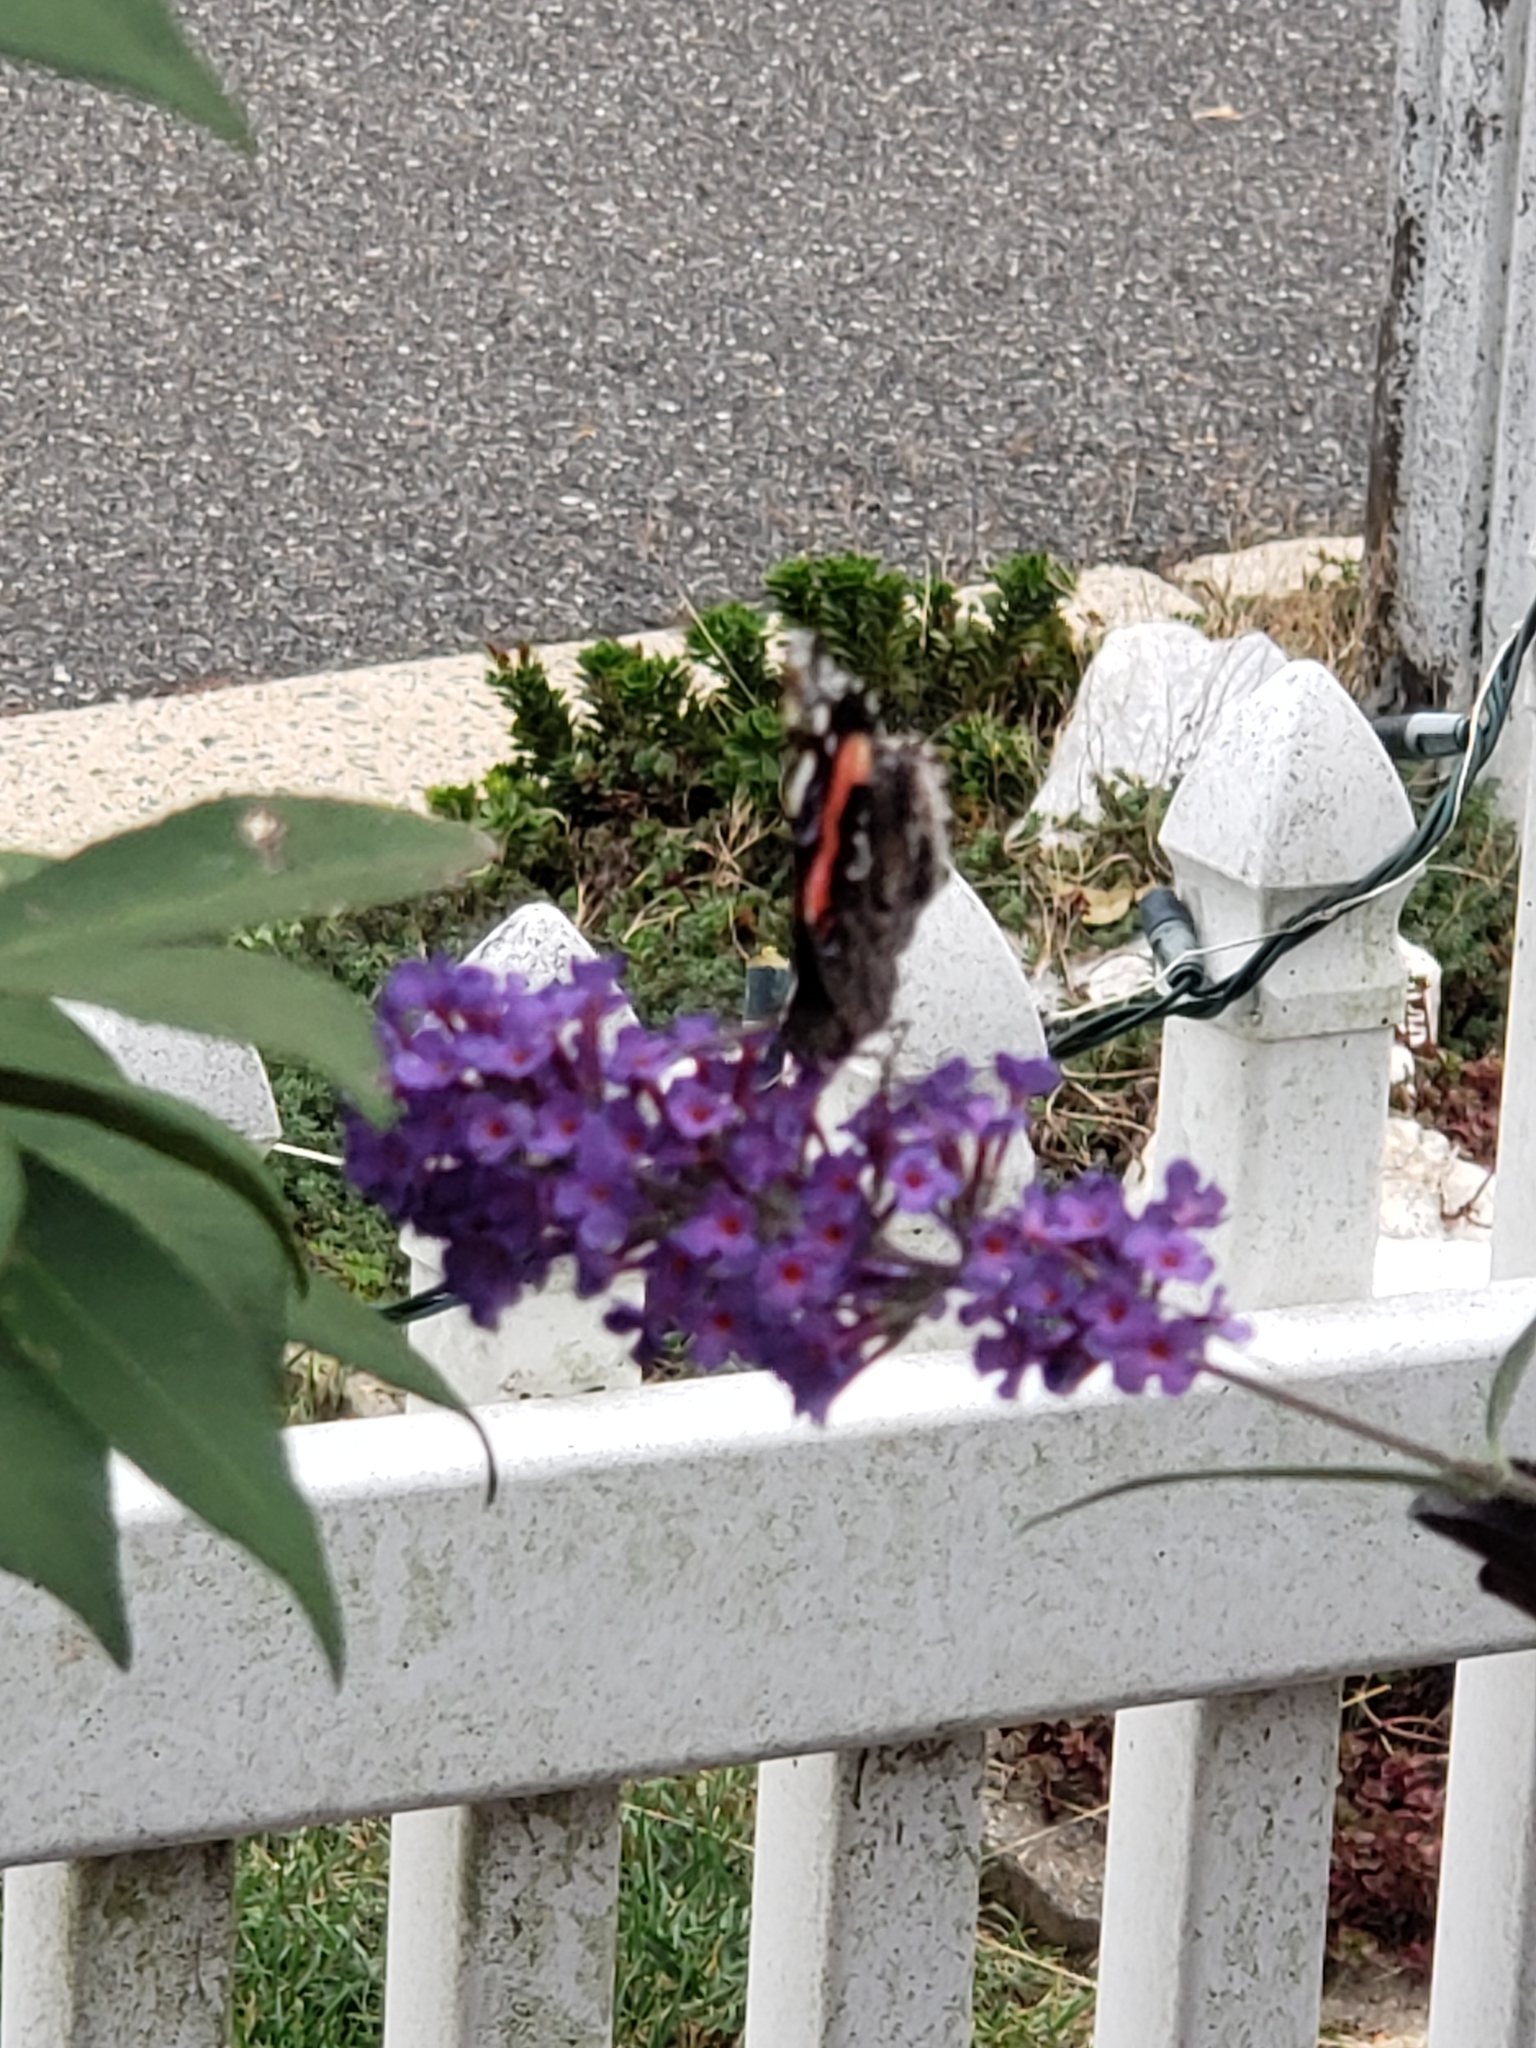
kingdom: Animalia
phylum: Arthropoda
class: Insecta
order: Lepidoptera
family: Nymphalidae
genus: Vanessa
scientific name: Vanessa atalanta
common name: Red admiral
